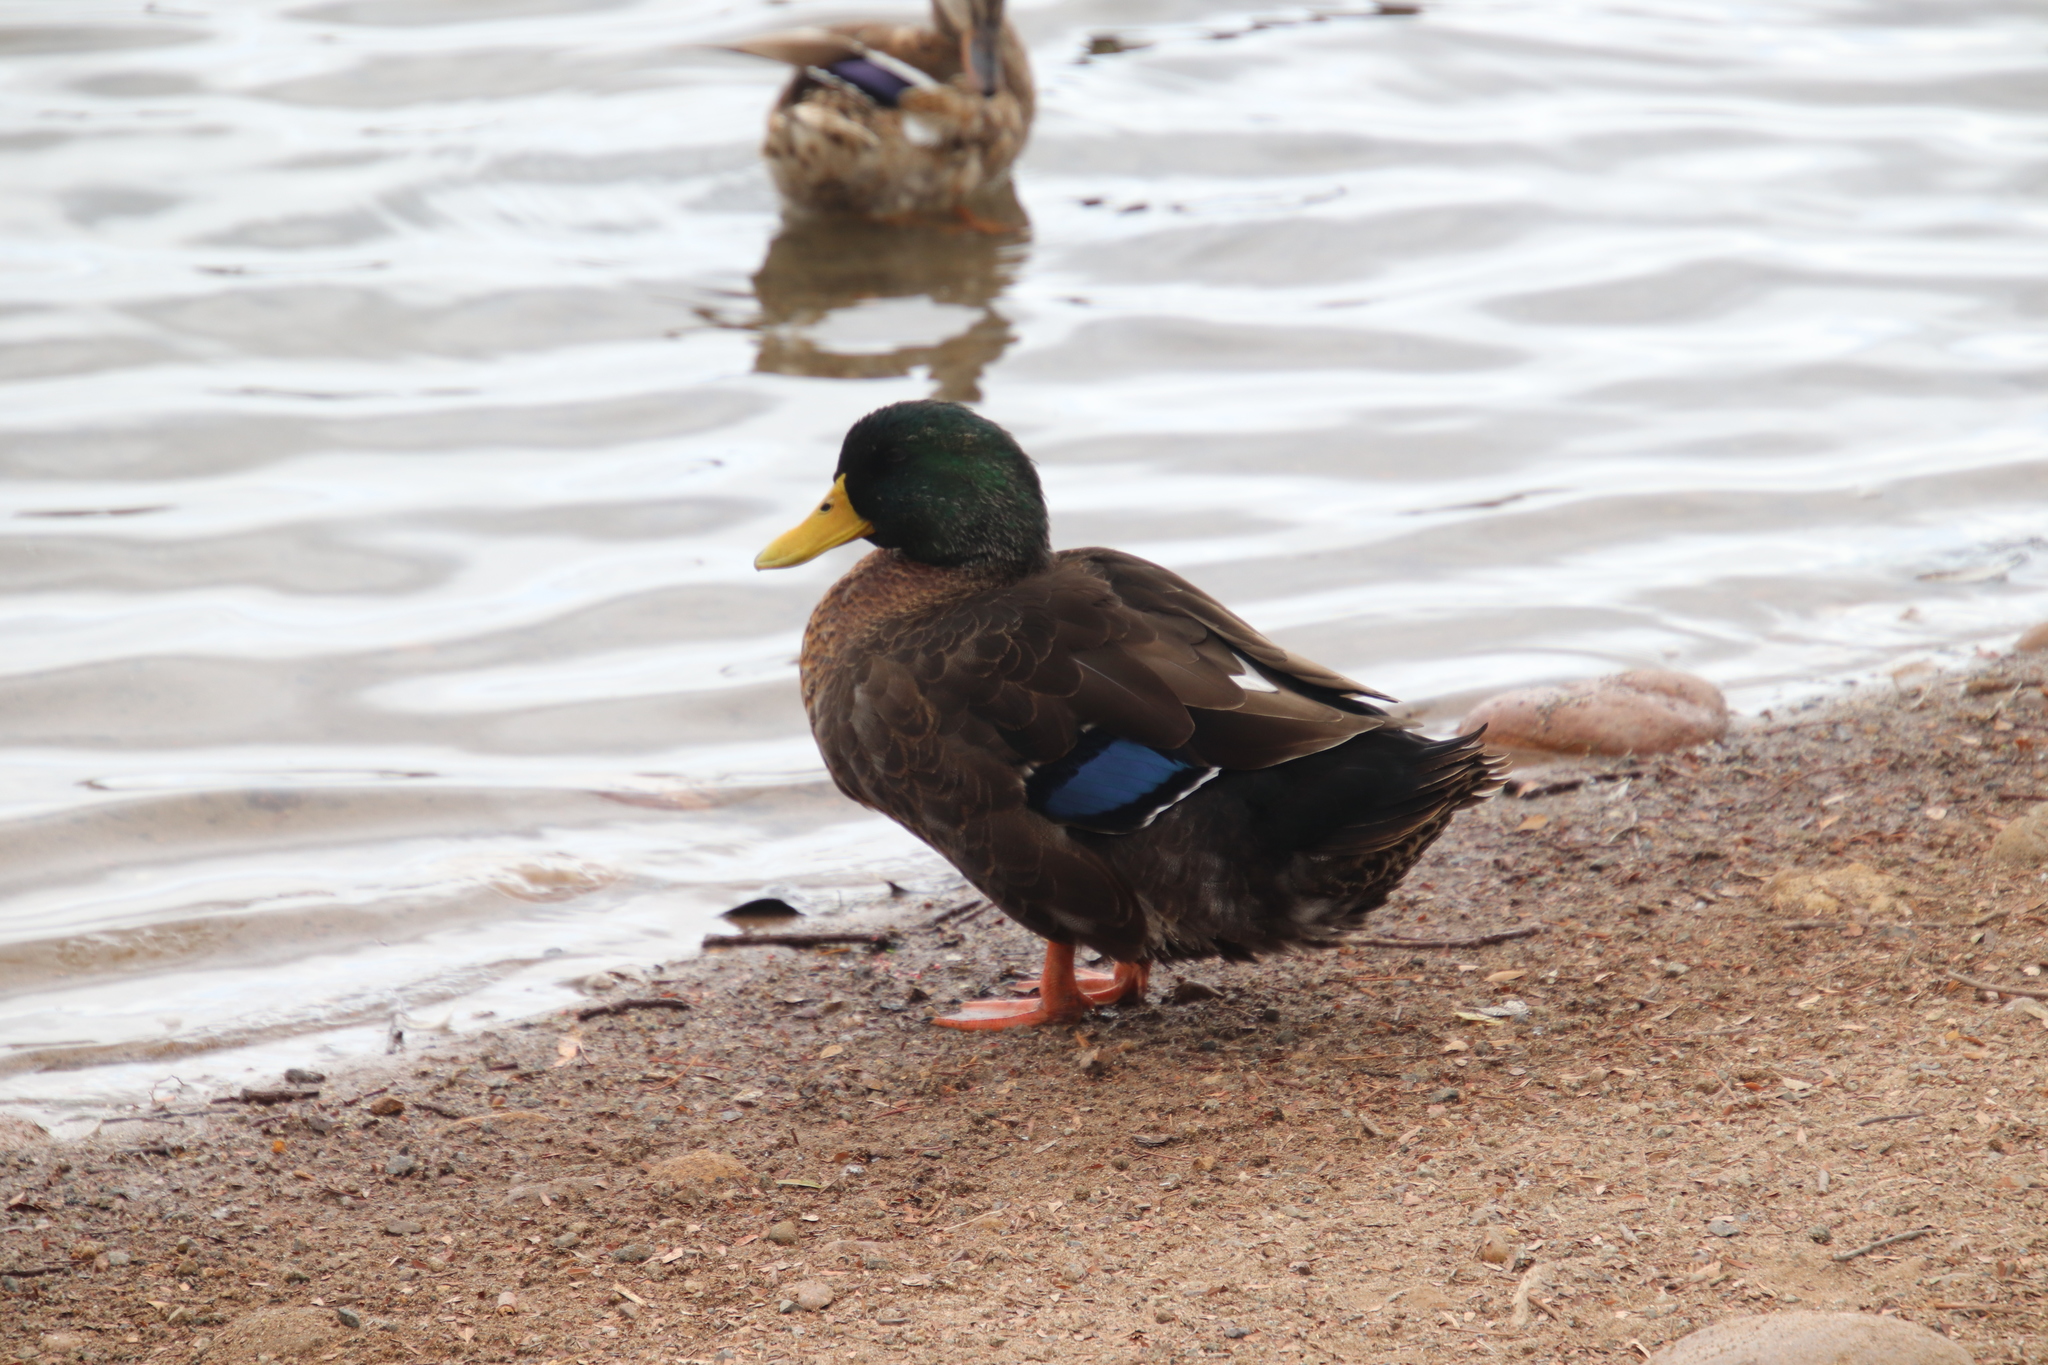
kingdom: Animalia
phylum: Chordata
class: Aves
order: Anseriformes
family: Anatidae
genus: Anas
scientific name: Anas platyrhynchos
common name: Mallard
